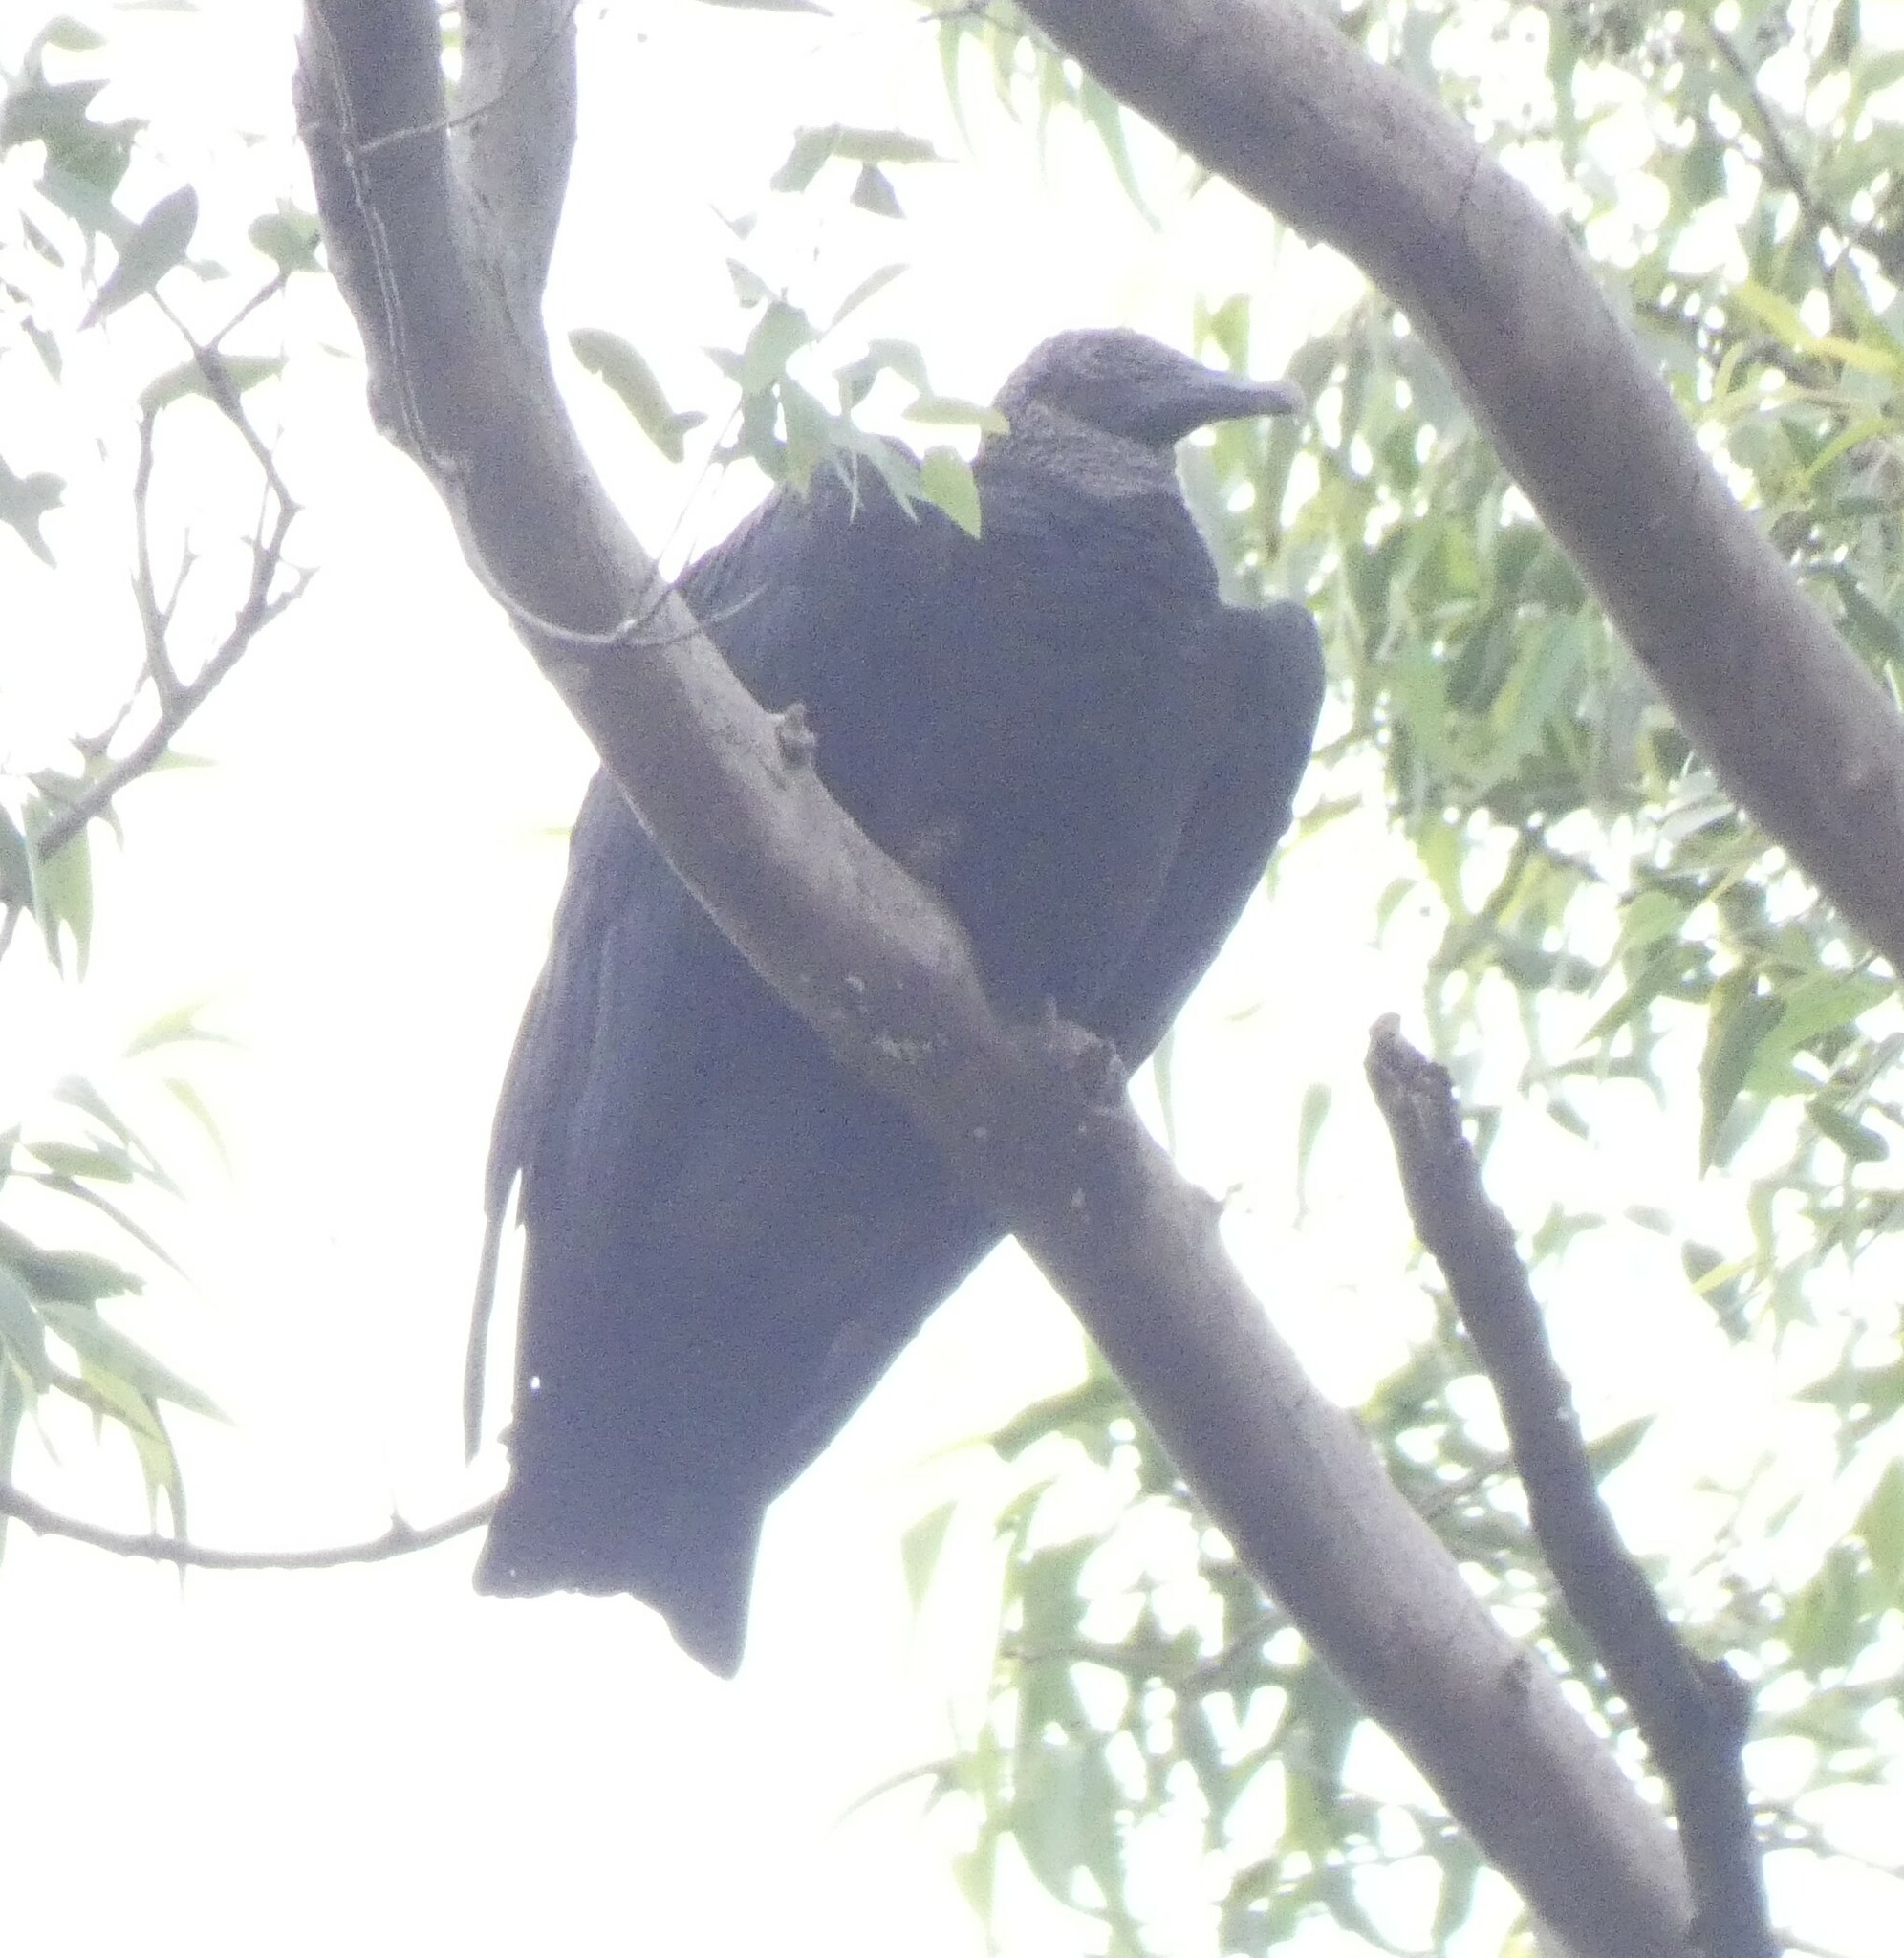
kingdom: Animalia
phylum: Chordata
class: Aves
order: Accipitriformes
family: Cathartidae
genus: Coragyps
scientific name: Coragyps atratus
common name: Black vulture
